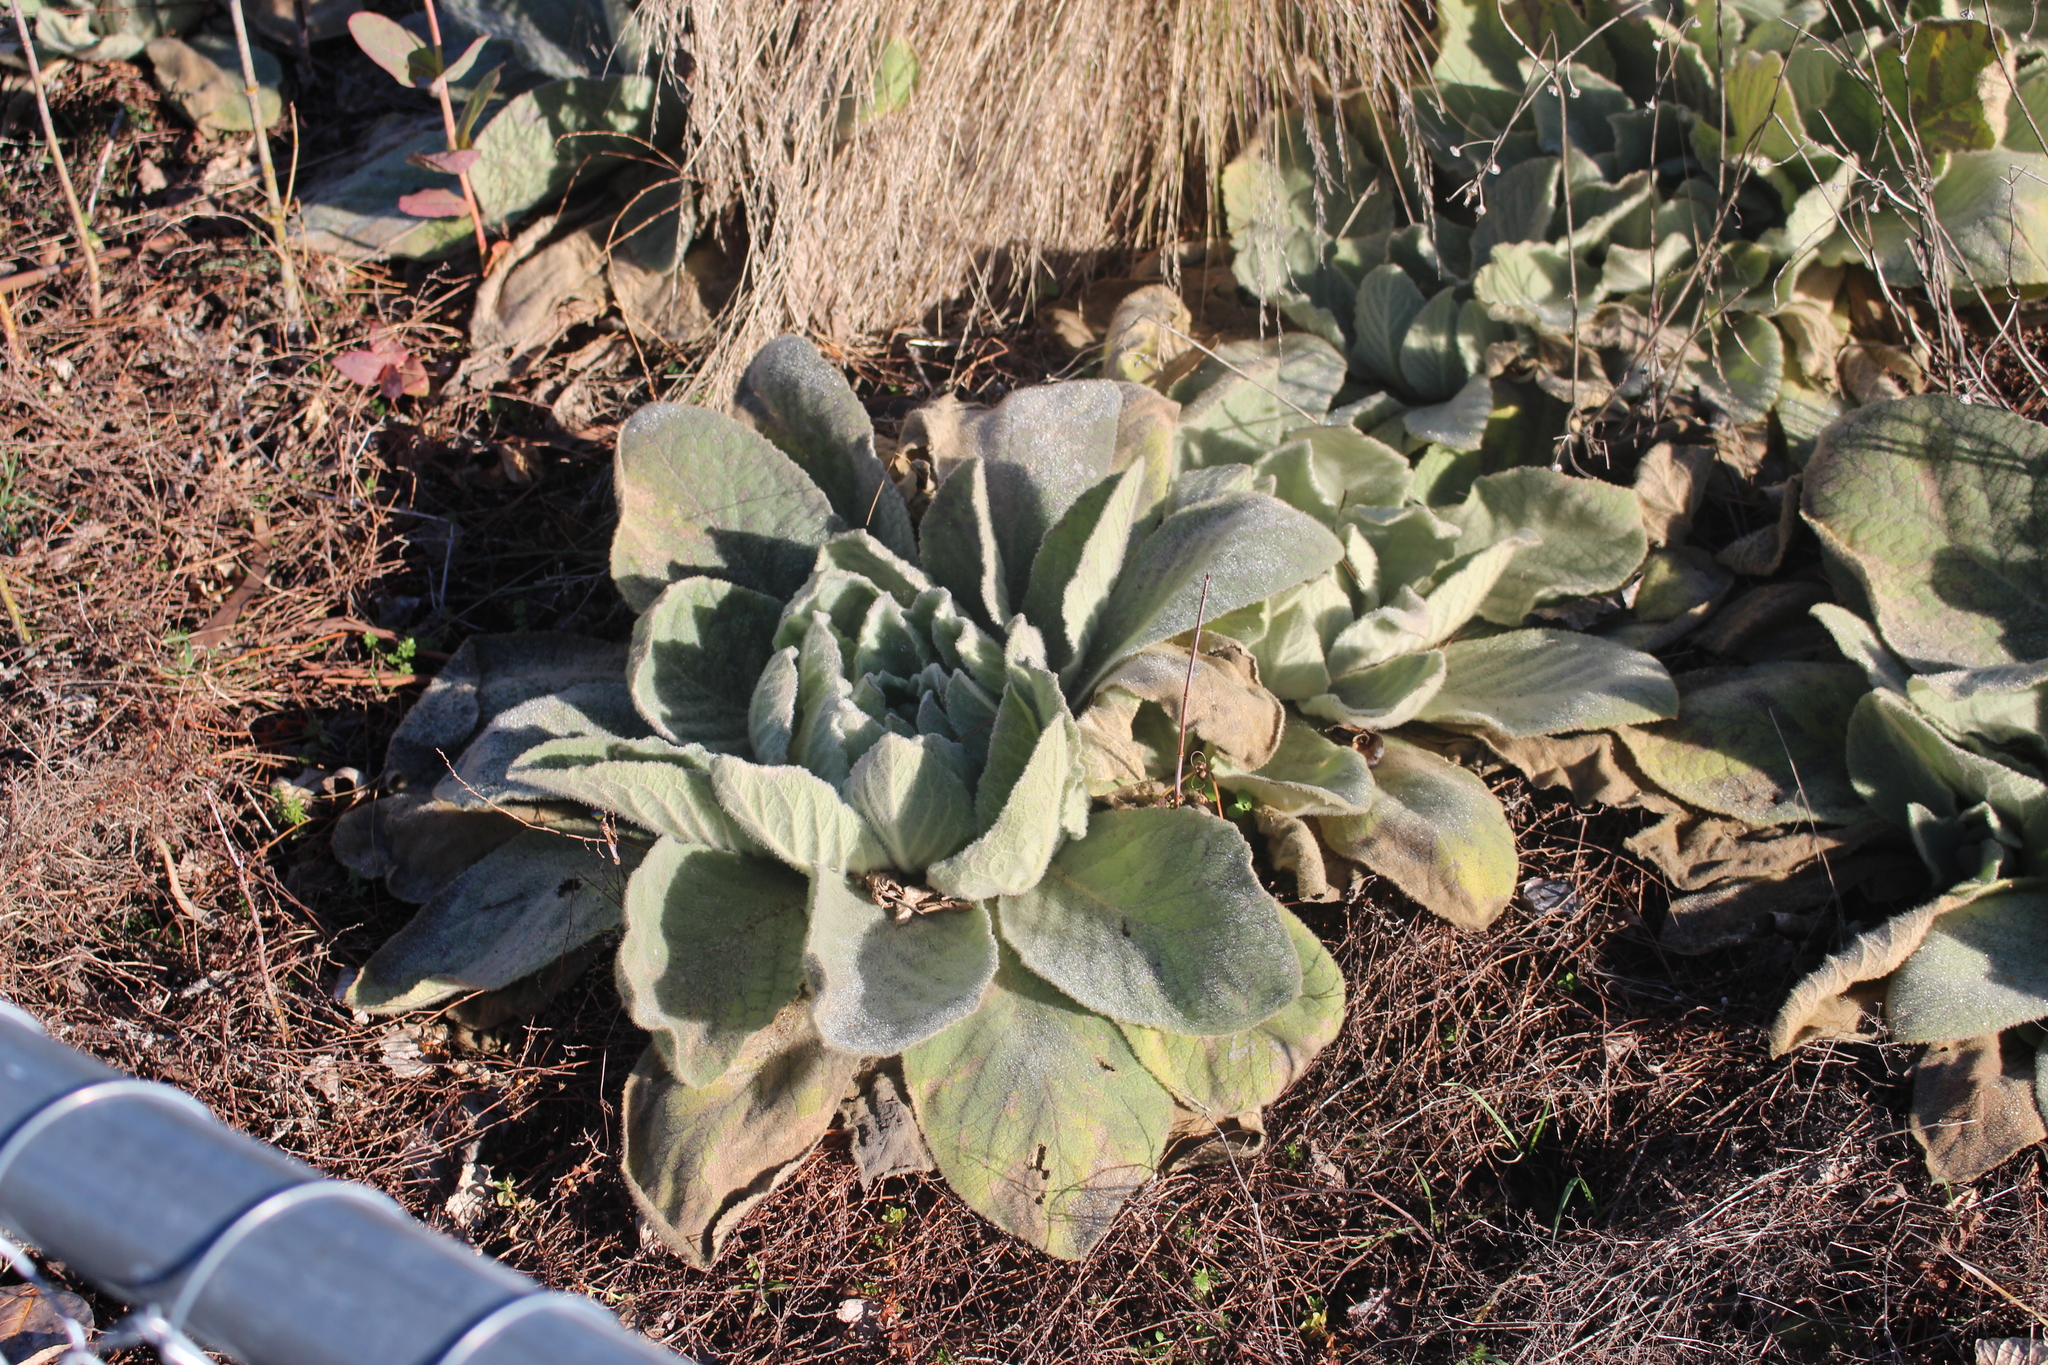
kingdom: Plantae
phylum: Tracheophyta
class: Magnoliopsida
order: Lamiales
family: Scrophulariaceae
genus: Verbascum
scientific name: Verbascum thapsus
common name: Common mullein
